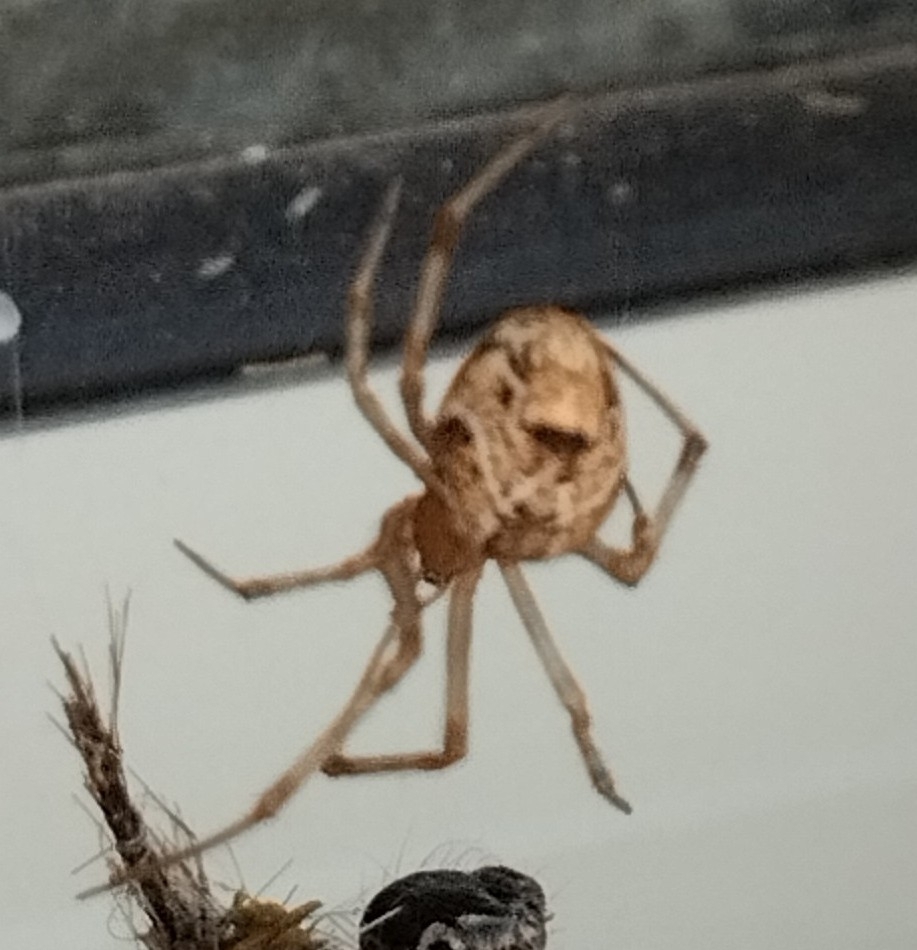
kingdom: Animalia
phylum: Arthropoda
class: Arachnida
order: Araneae
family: Theridiidae
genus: Parasteatoda
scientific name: Parasteatoda tepidariorum
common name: Common house spider
